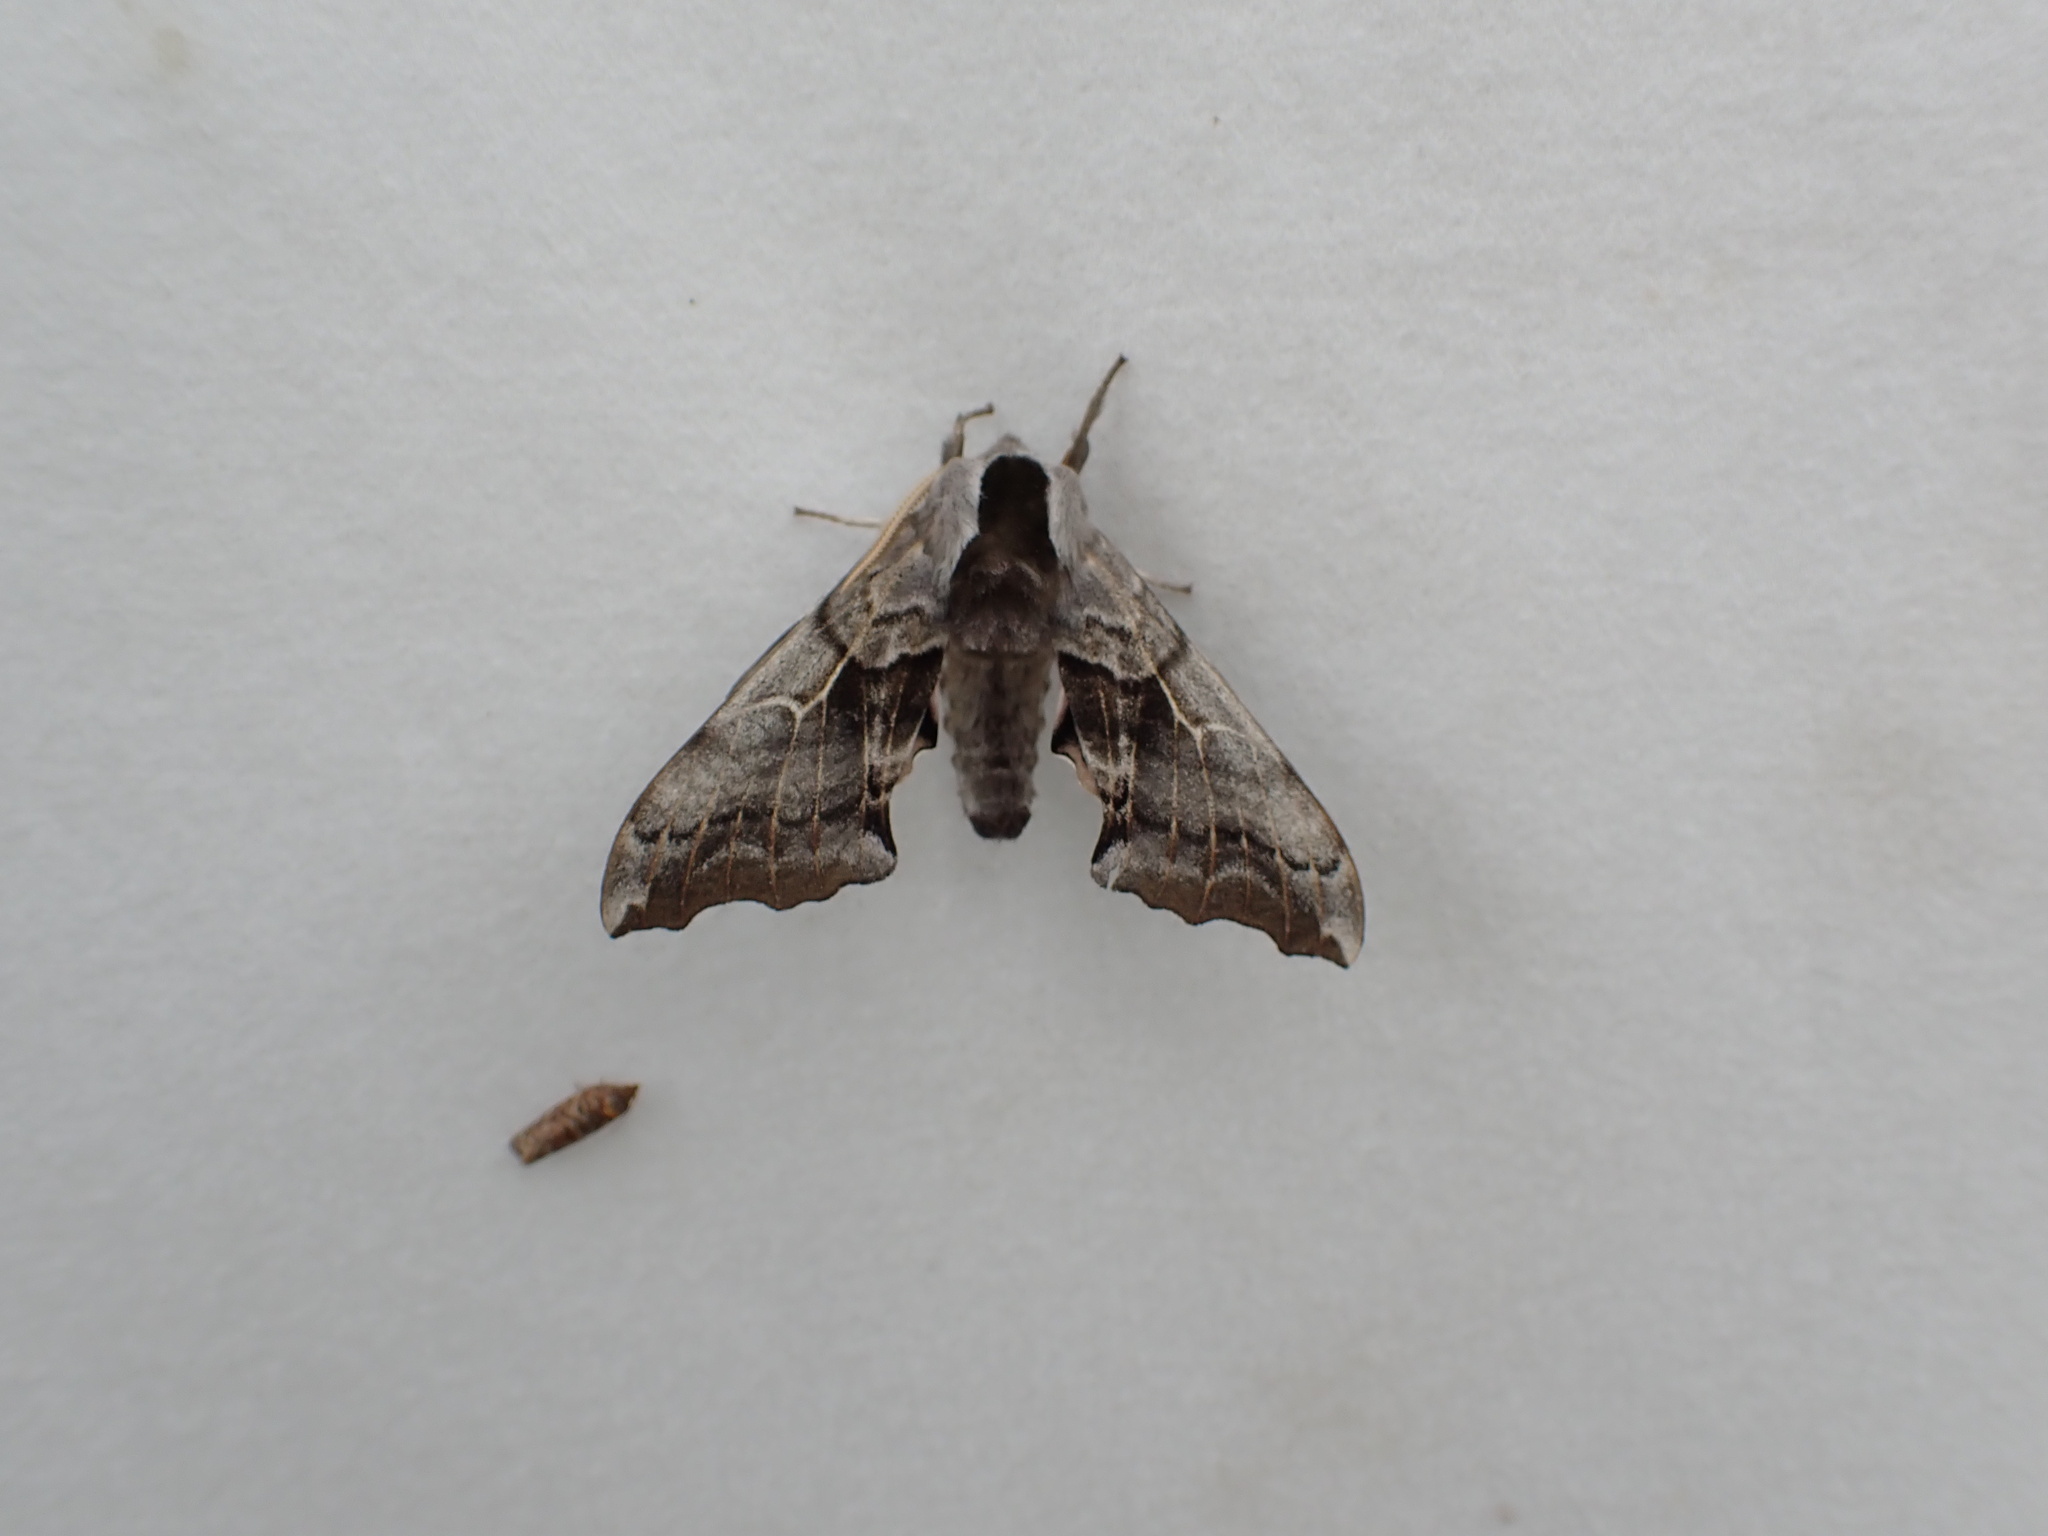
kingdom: Animalia
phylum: Arthropoda
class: Insecta
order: Lepidoptera
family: Sphingidae
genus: Smerinthus
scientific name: Smerinthus cerisyi
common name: Cerisy's sphinx moth
